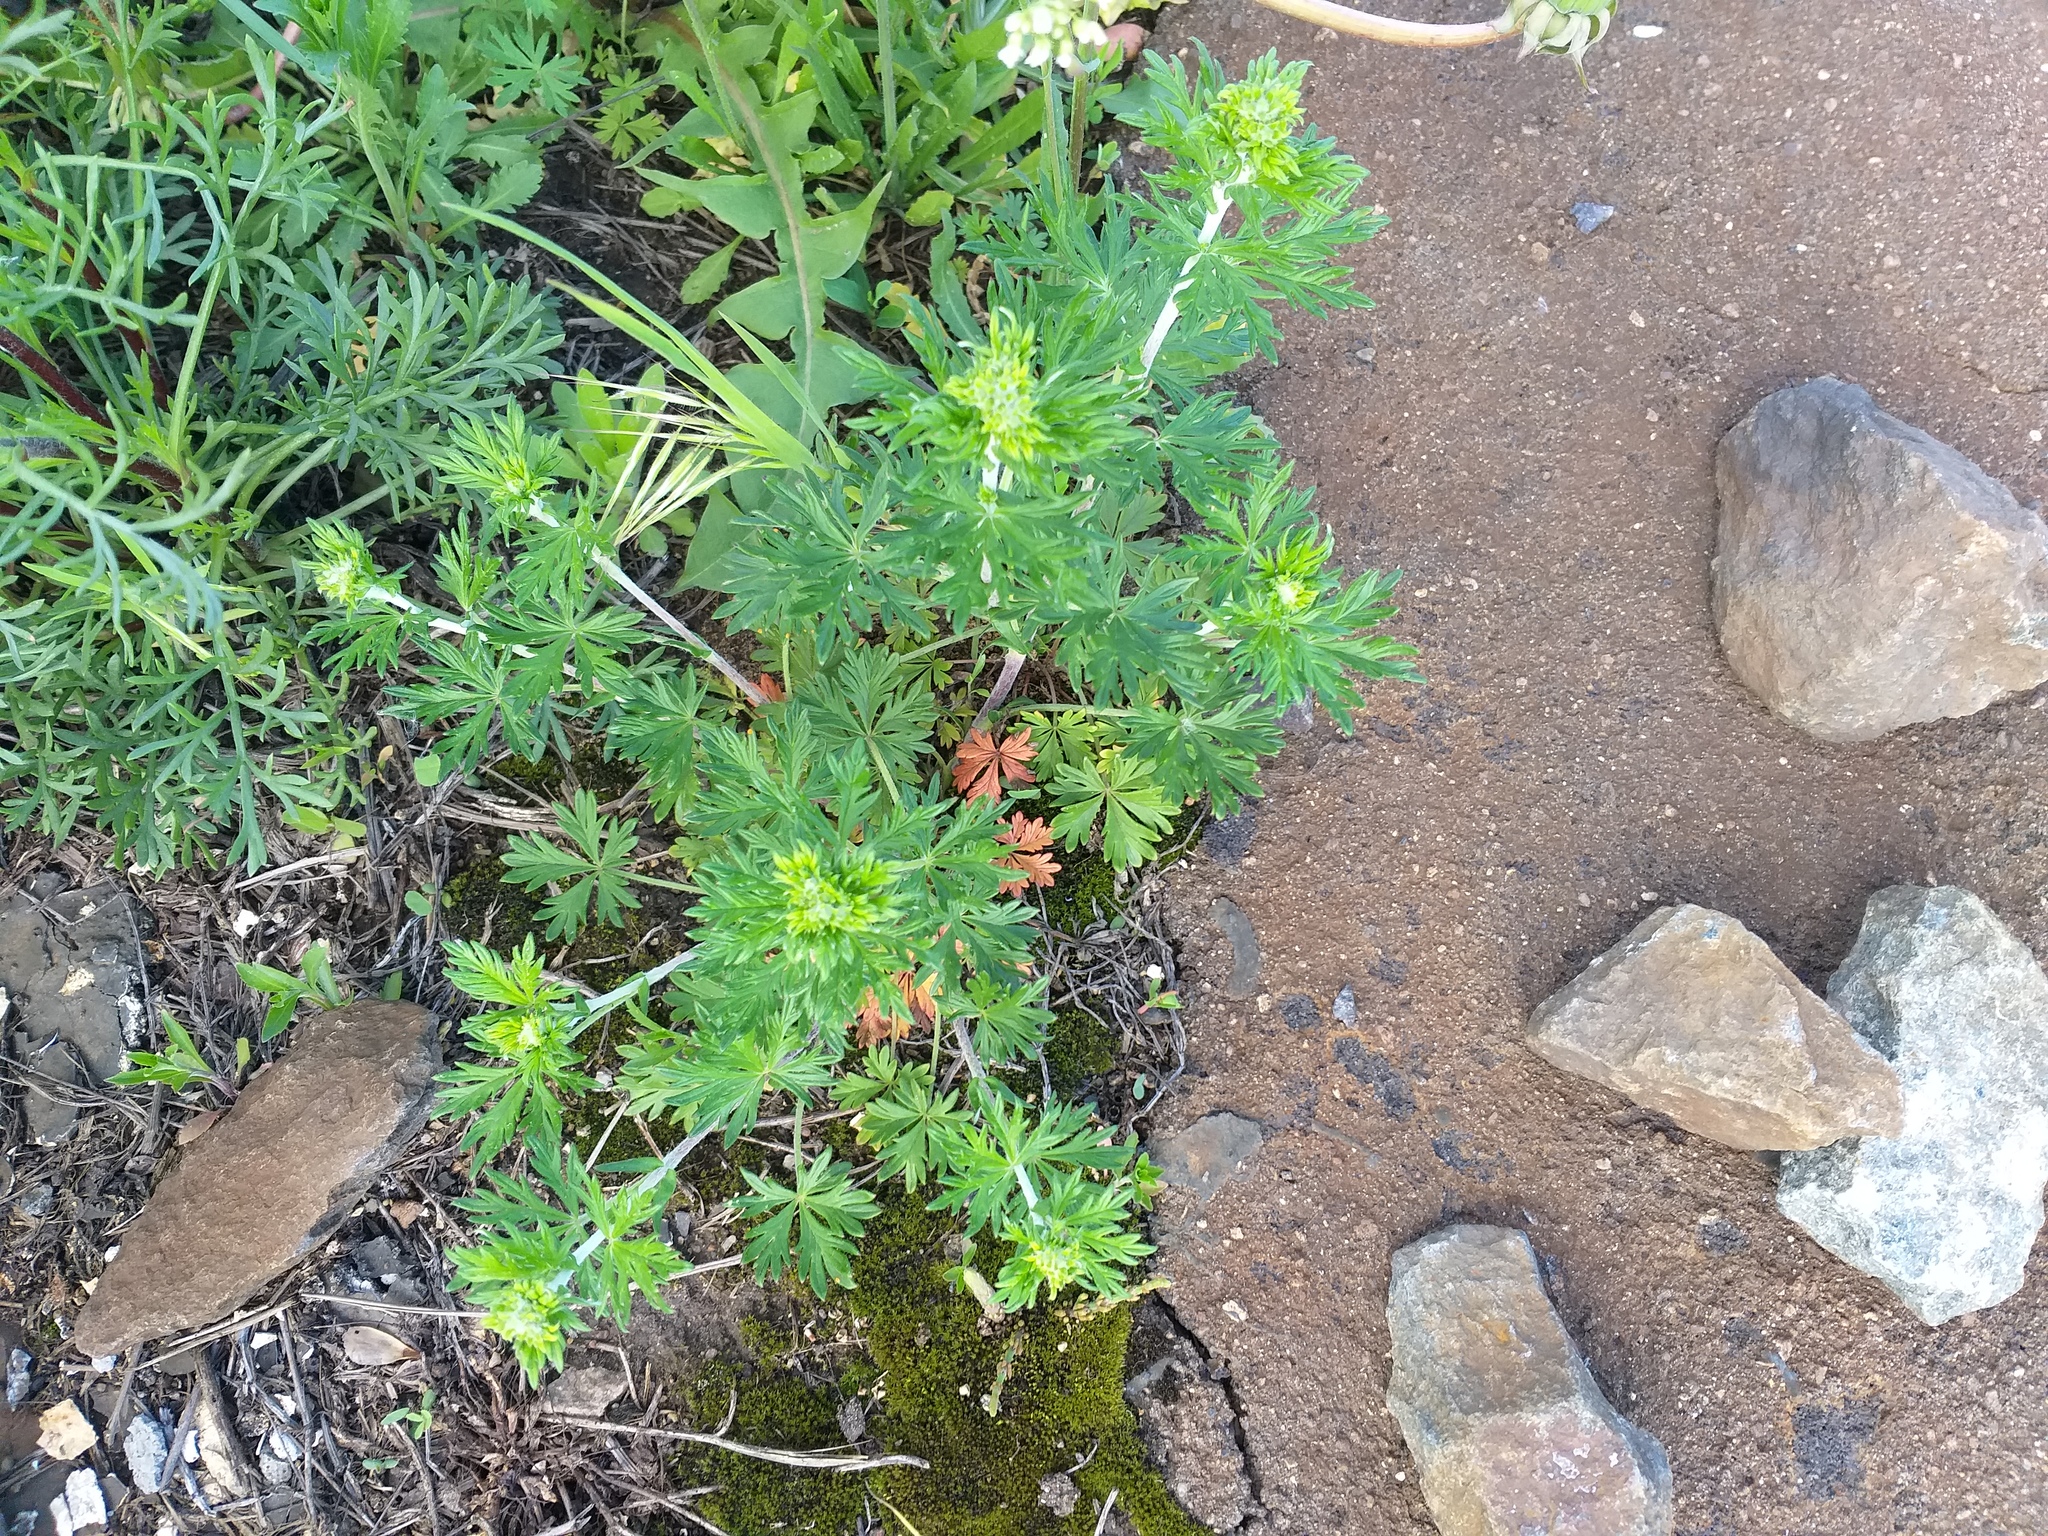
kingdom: Plantae
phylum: Tracheophyta
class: Magnoliopsida
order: Rosales
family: Rosaceae
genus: Potentilla
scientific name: Potentilla argentea
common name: Hoary cinquefoil
